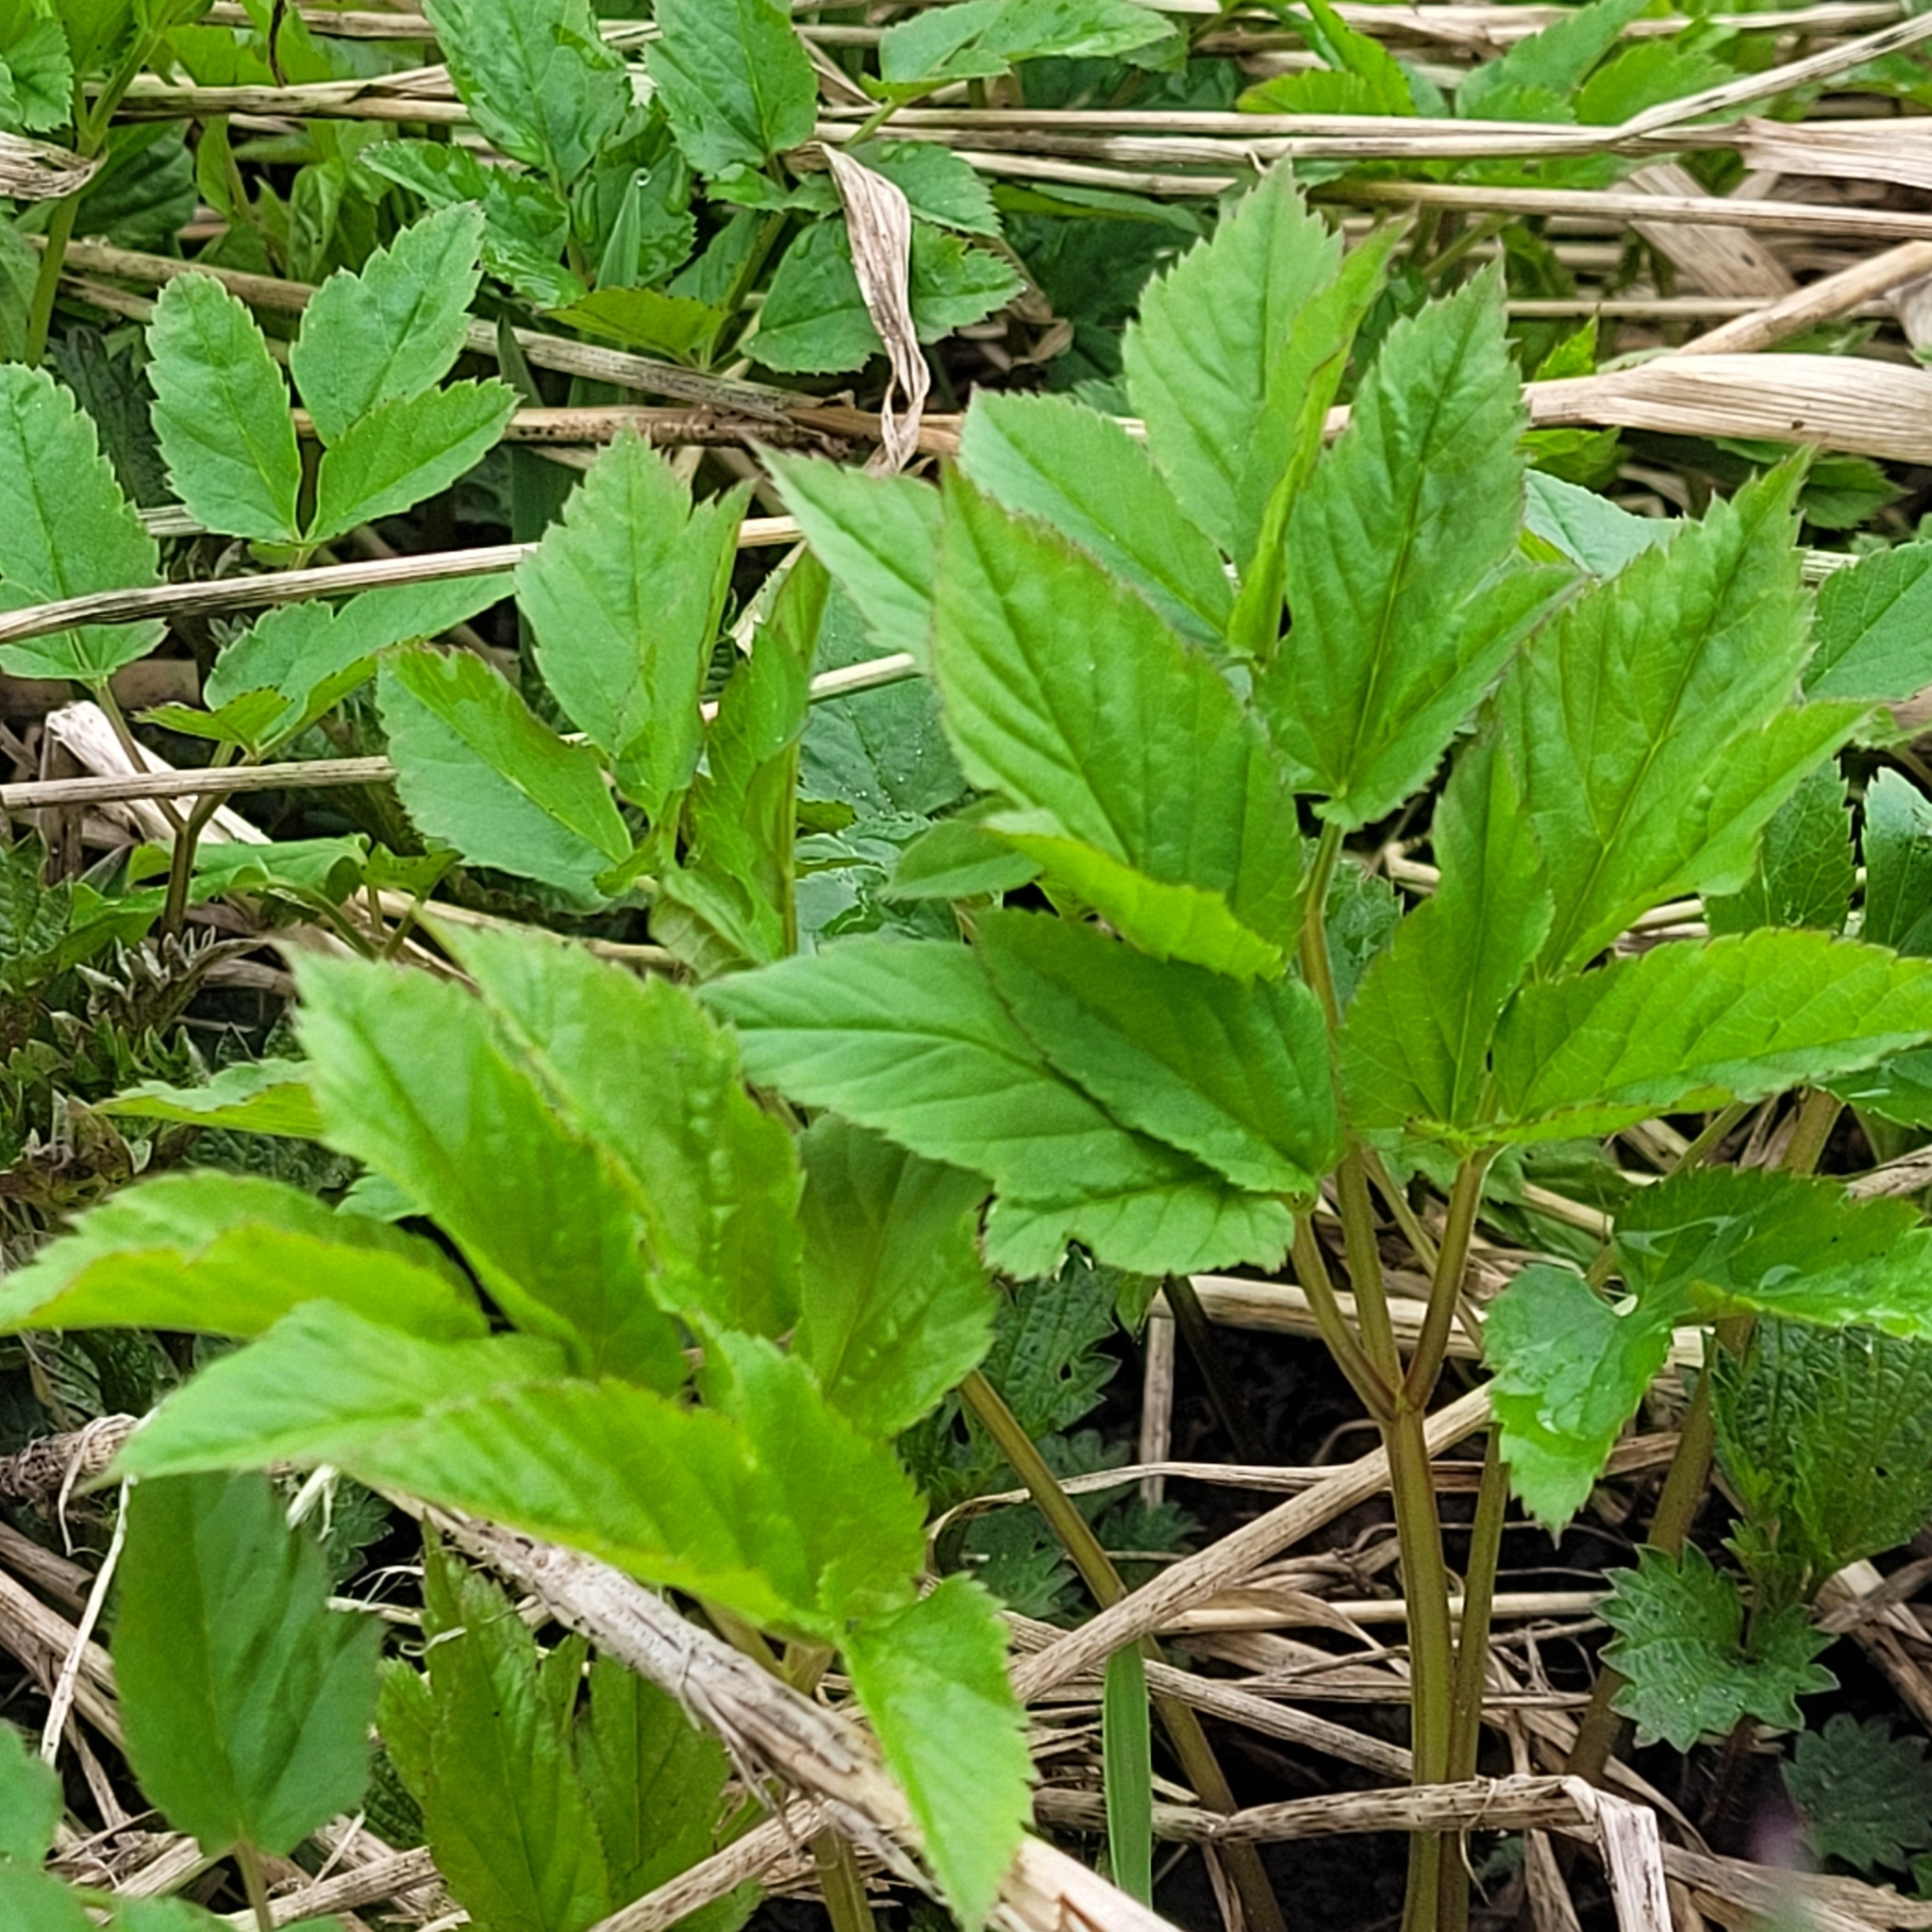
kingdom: Plantae
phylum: Tracheophyta
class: Magnoliopsida
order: Apiales
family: Apiaceae
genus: Aegopodium
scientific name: Aegopodium podagraria
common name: Ground-elder
